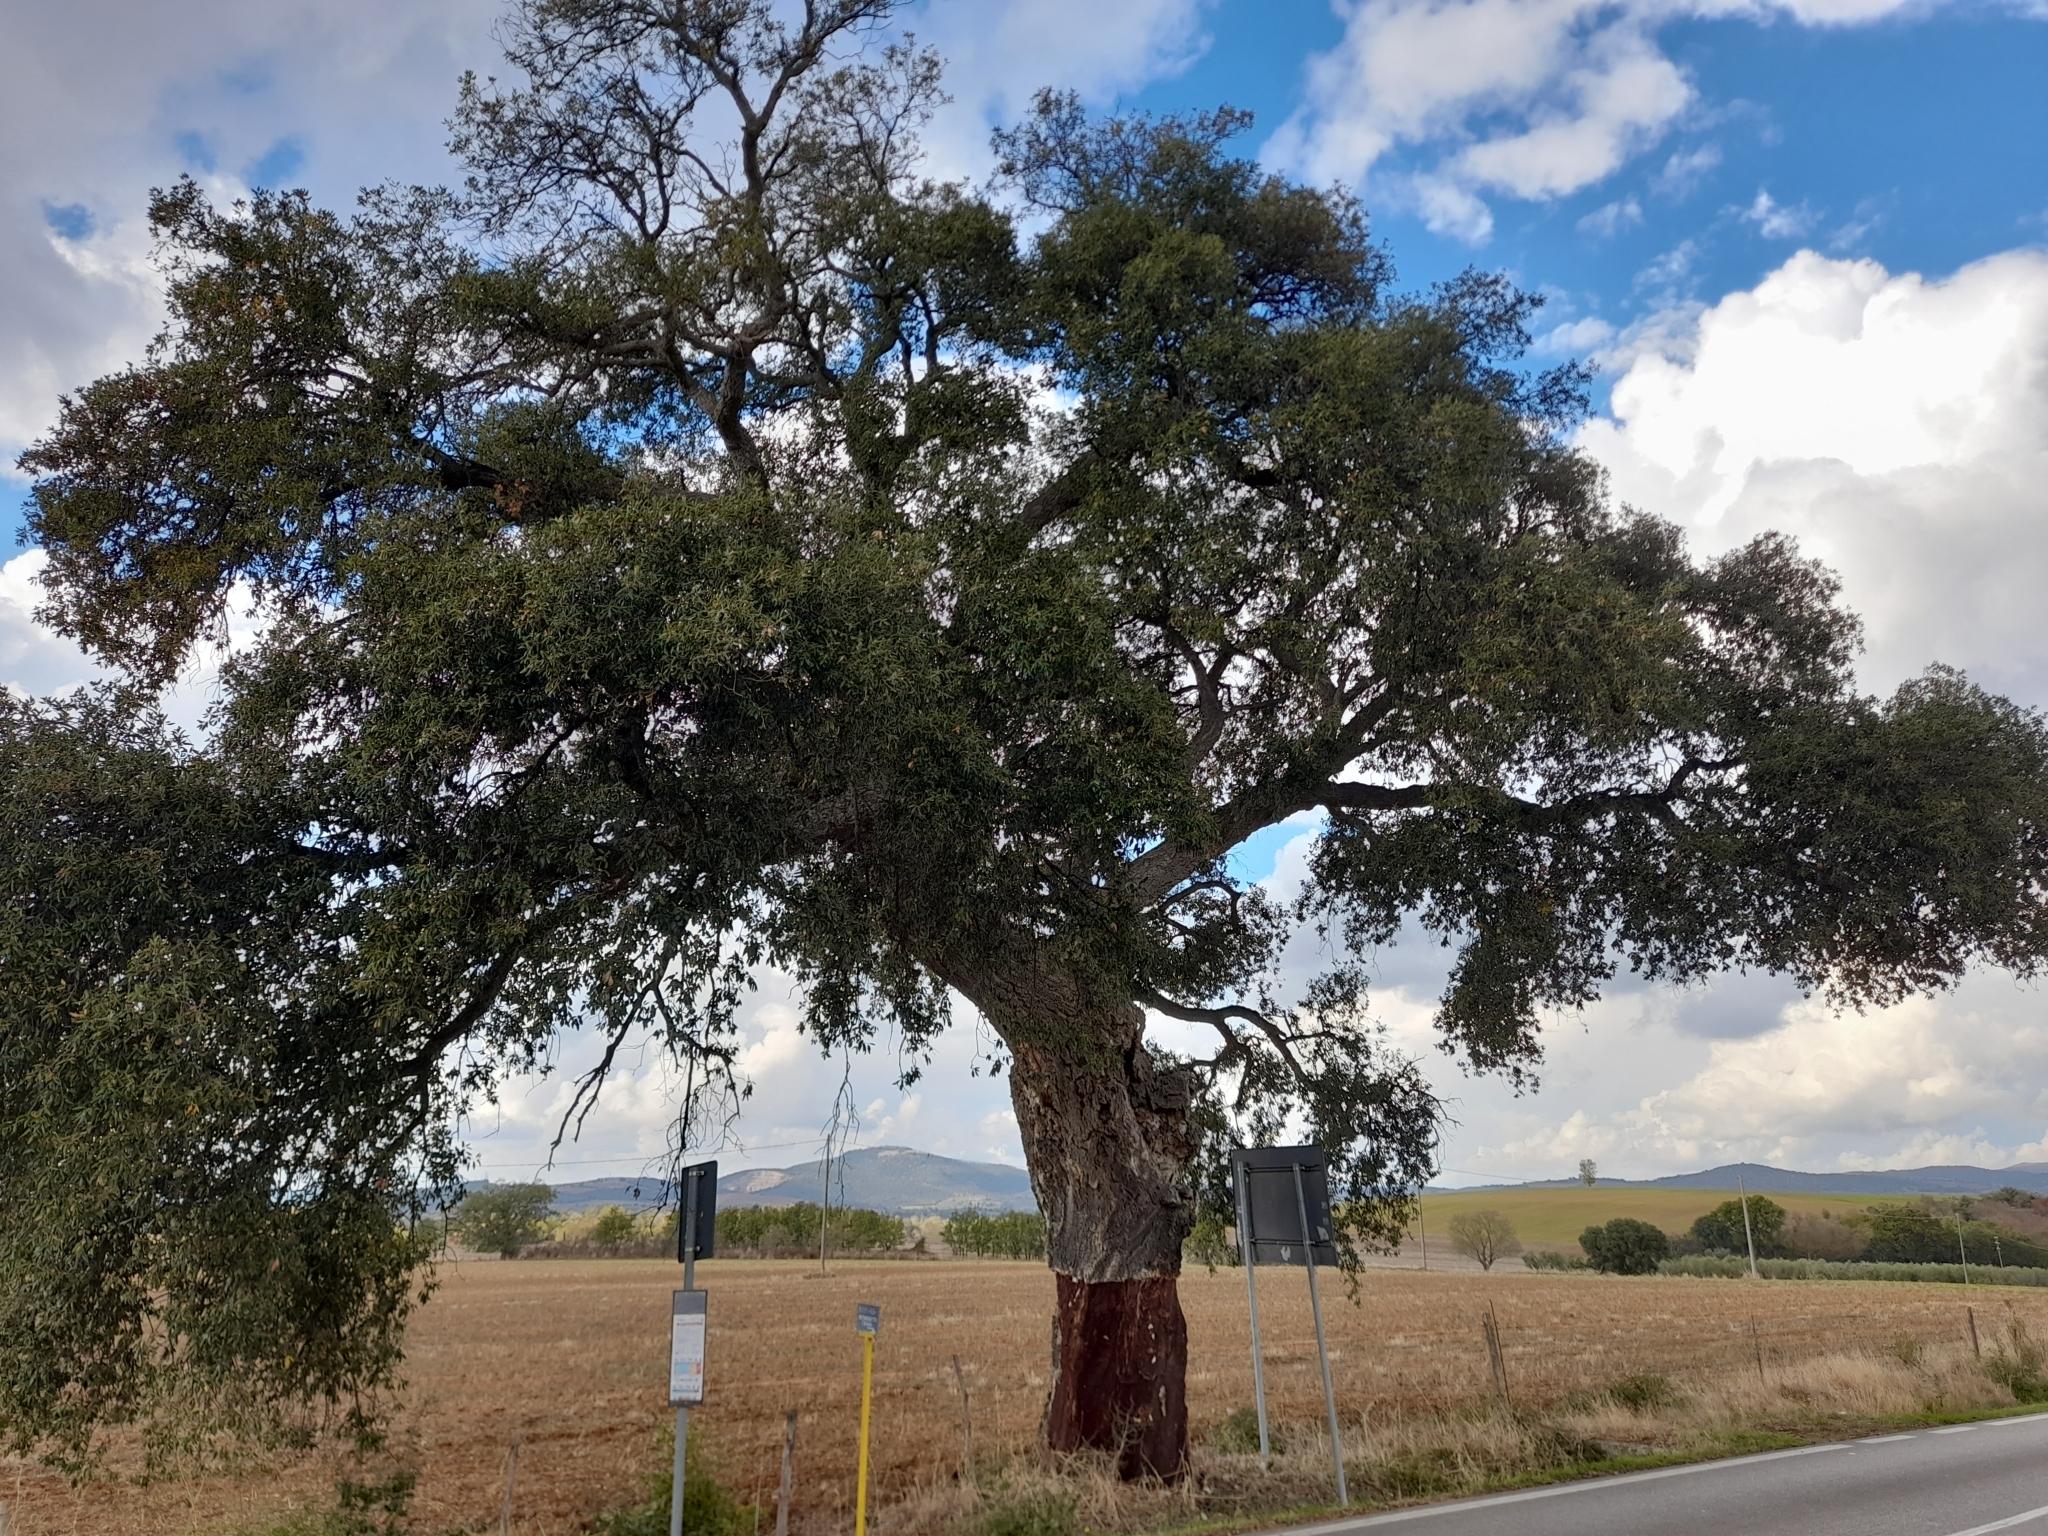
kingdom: Plantae
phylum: Tracheophyta
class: Magnoliopsida
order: Fagales
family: Fagaceae
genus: Quercus
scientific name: Quercus suber
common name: Cork oak
